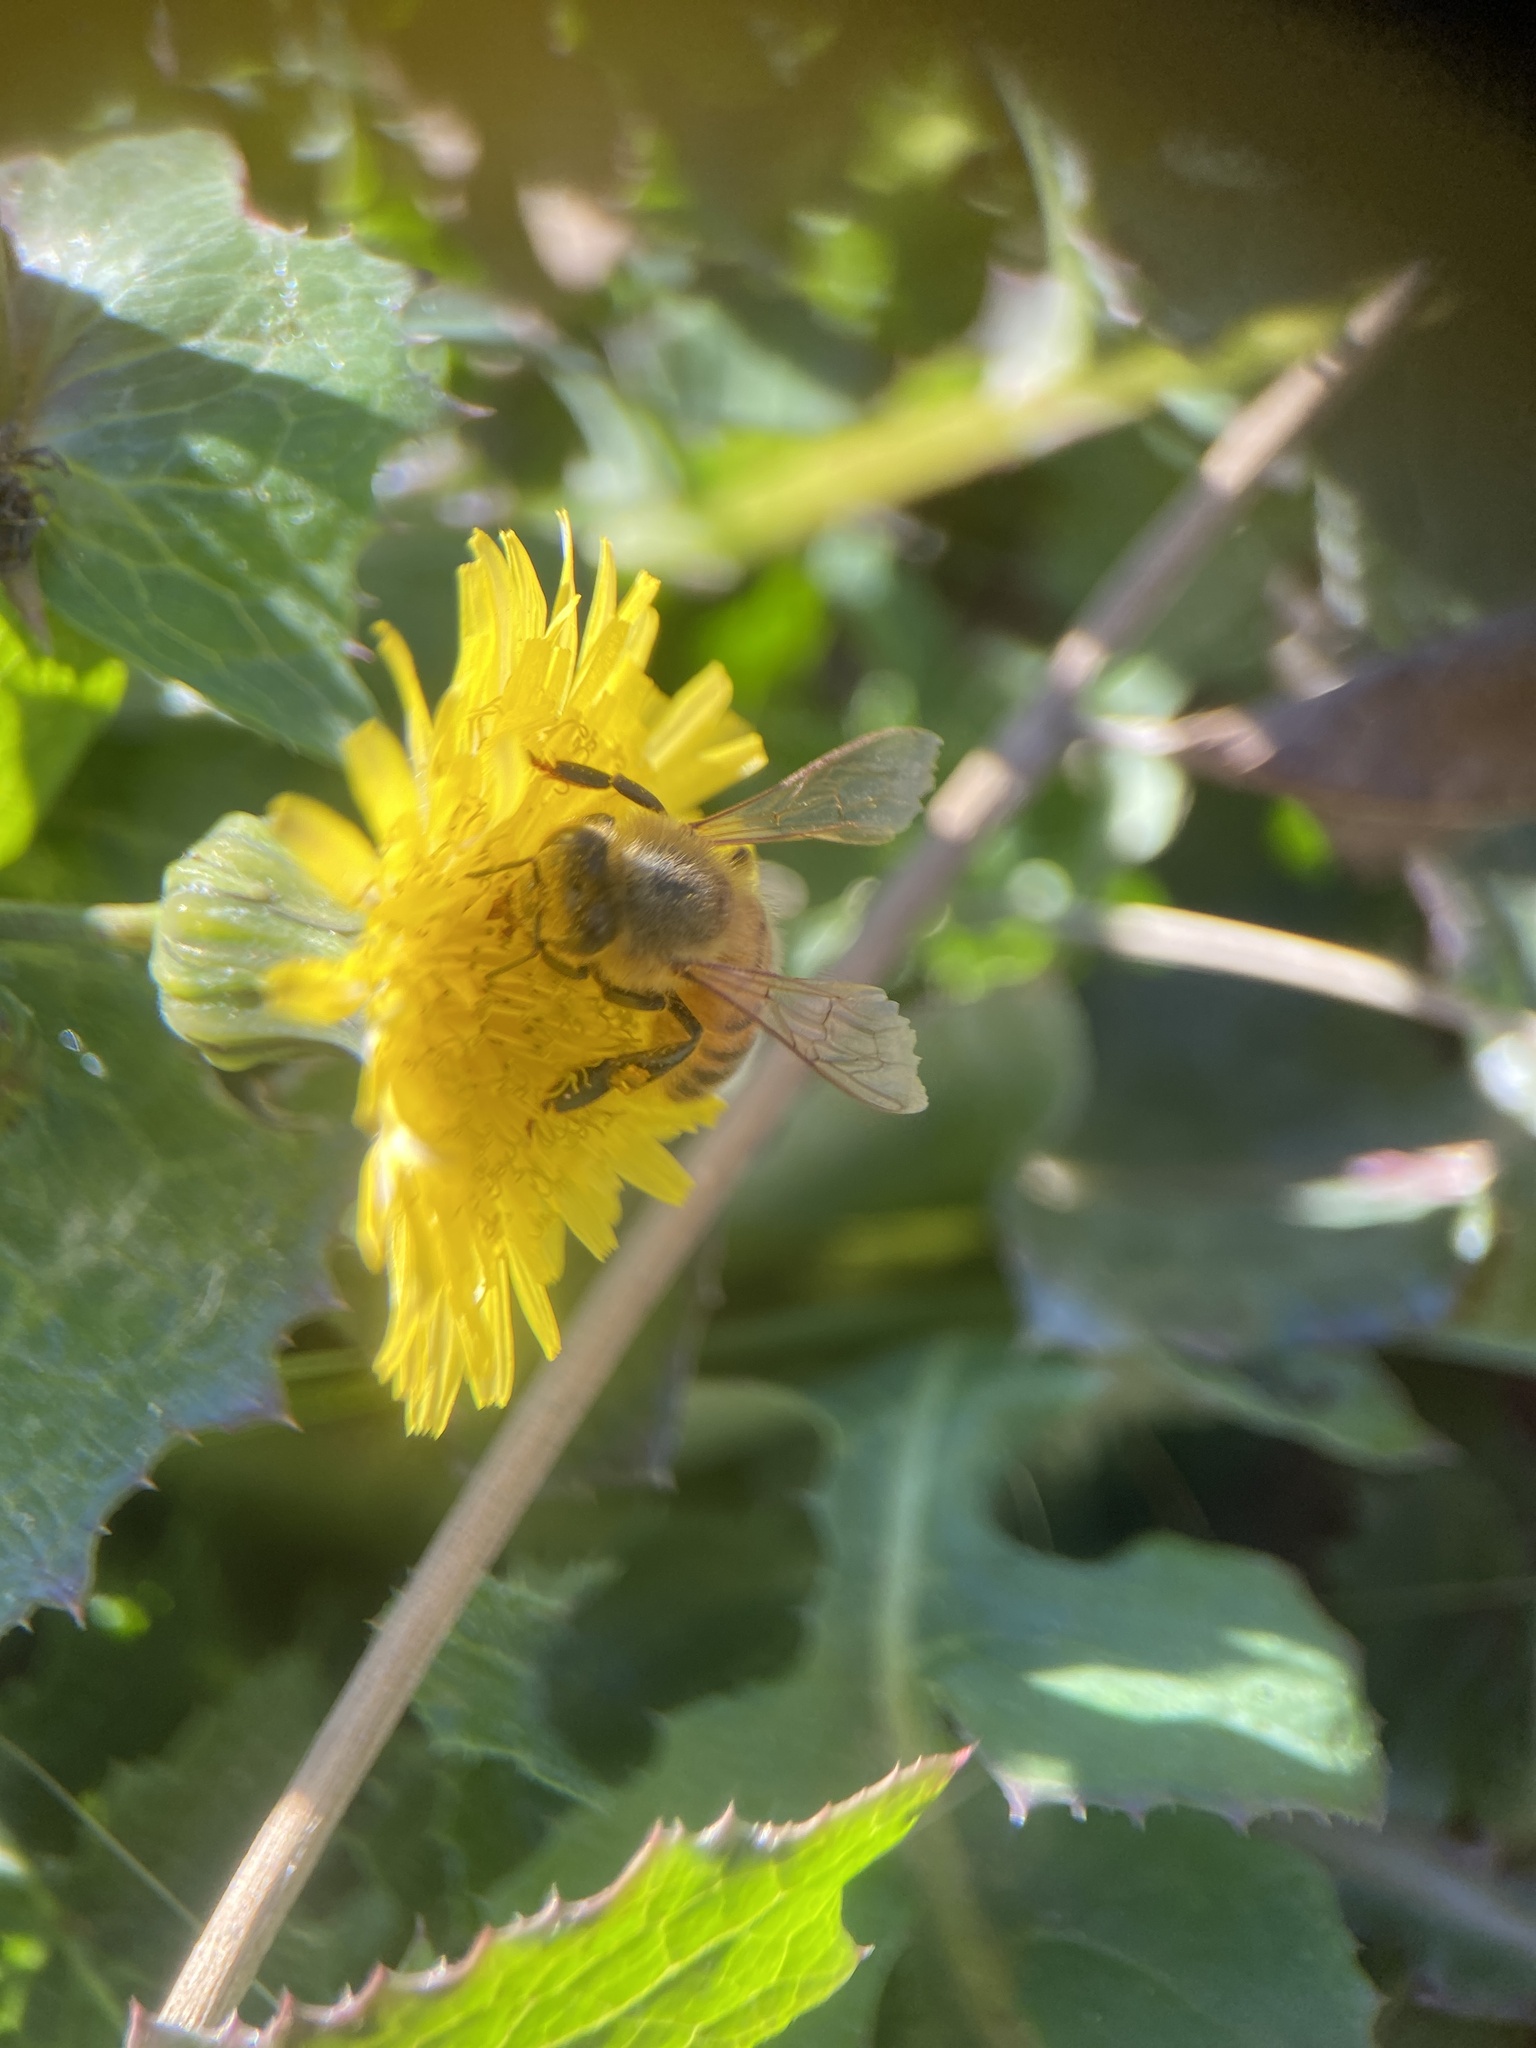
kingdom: Animalia
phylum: Arthropoda
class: Insecta
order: Hymenoptera
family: Apidae
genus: Apis
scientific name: Apis mellifera
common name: Honey bee
